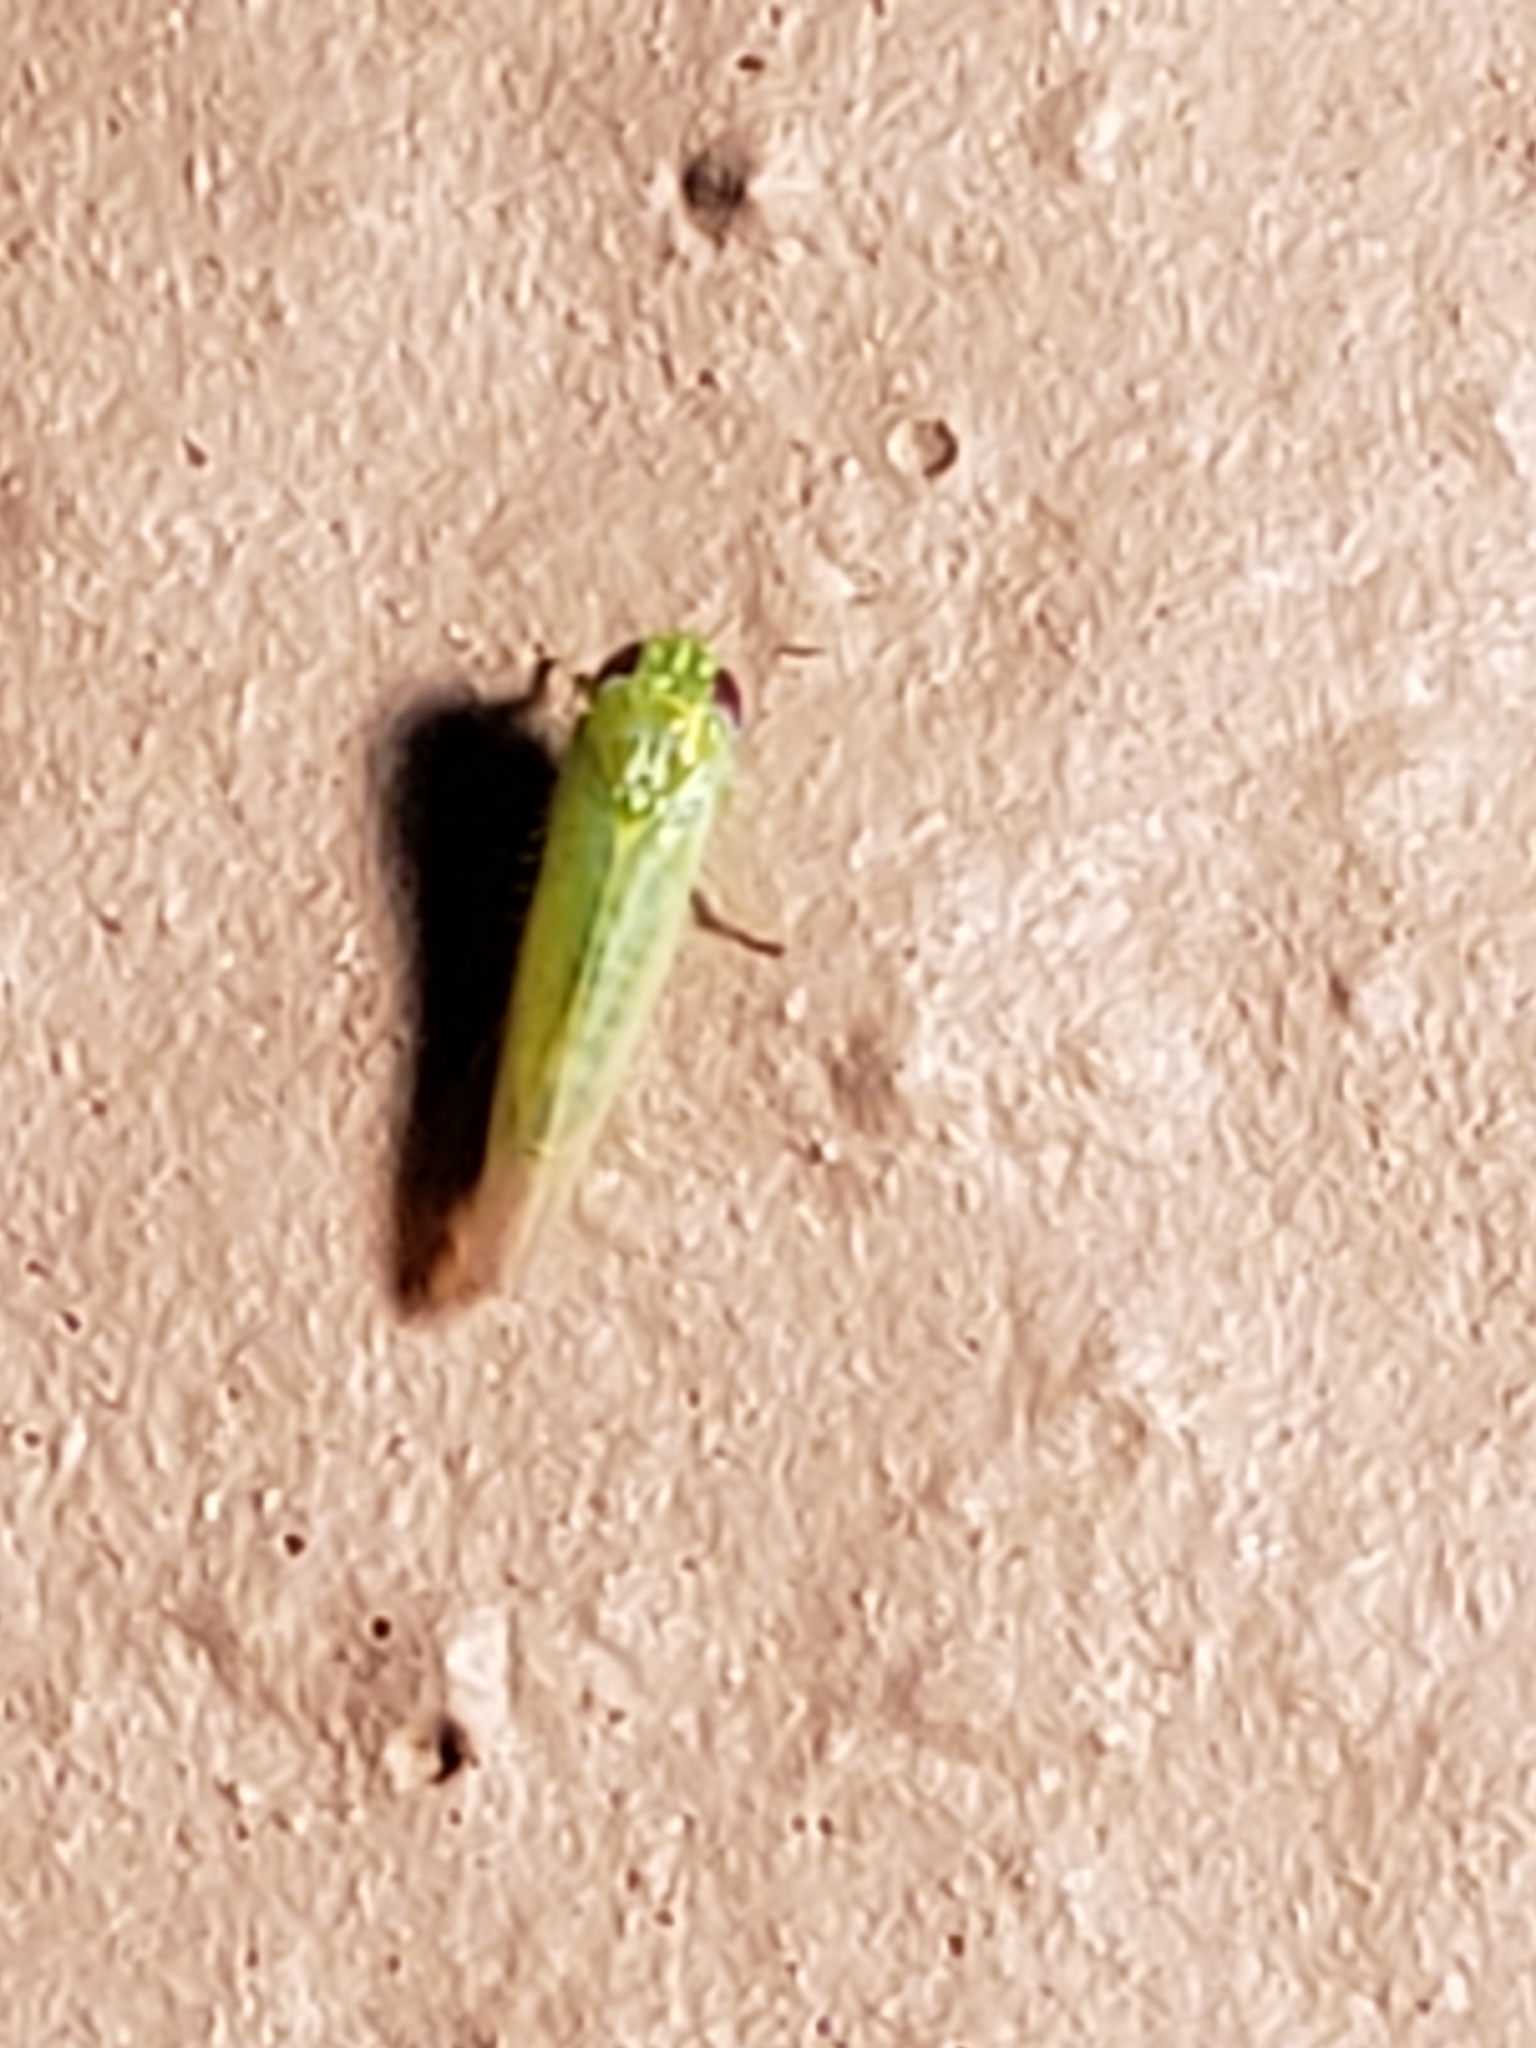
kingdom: Animalia
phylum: Arthropoda
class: Insecta
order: Hemiptera
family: Cicadellidae
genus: Empoasca
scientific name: Empoasca fabae
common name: Potato leafhopper
